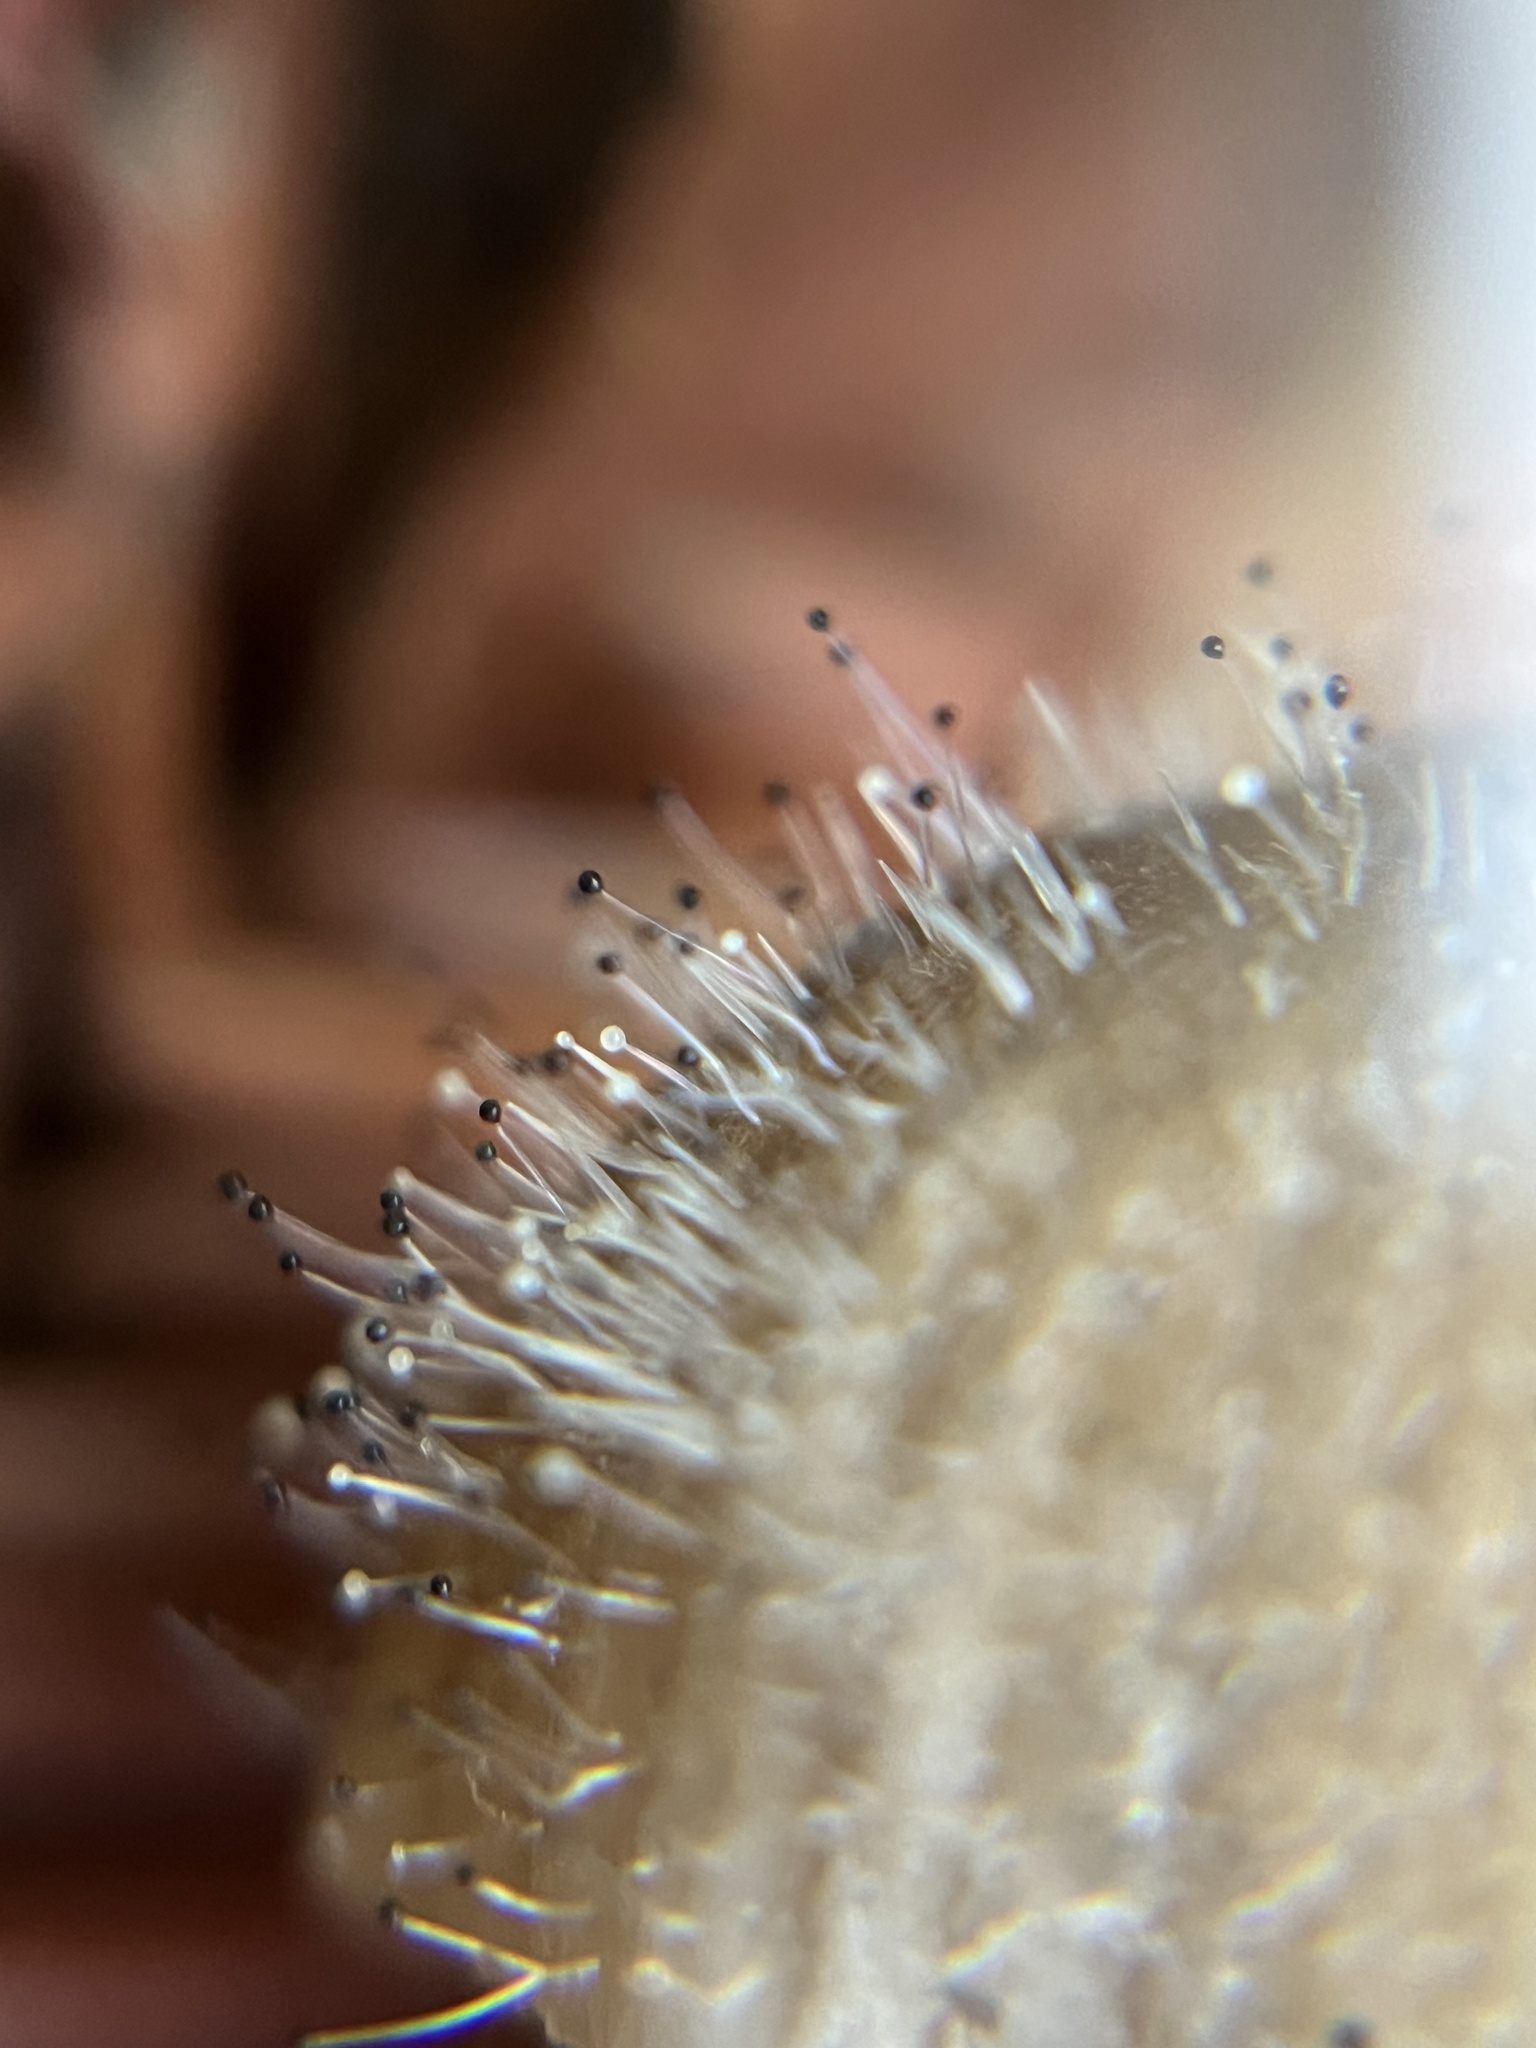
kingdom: Fungi
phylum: Mucoromycota
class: Mucoromycetes
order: Mucorales
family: Phycomycetaceae
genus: Spinellus
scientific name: Spinellus fusiger
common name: Bonnet mould
